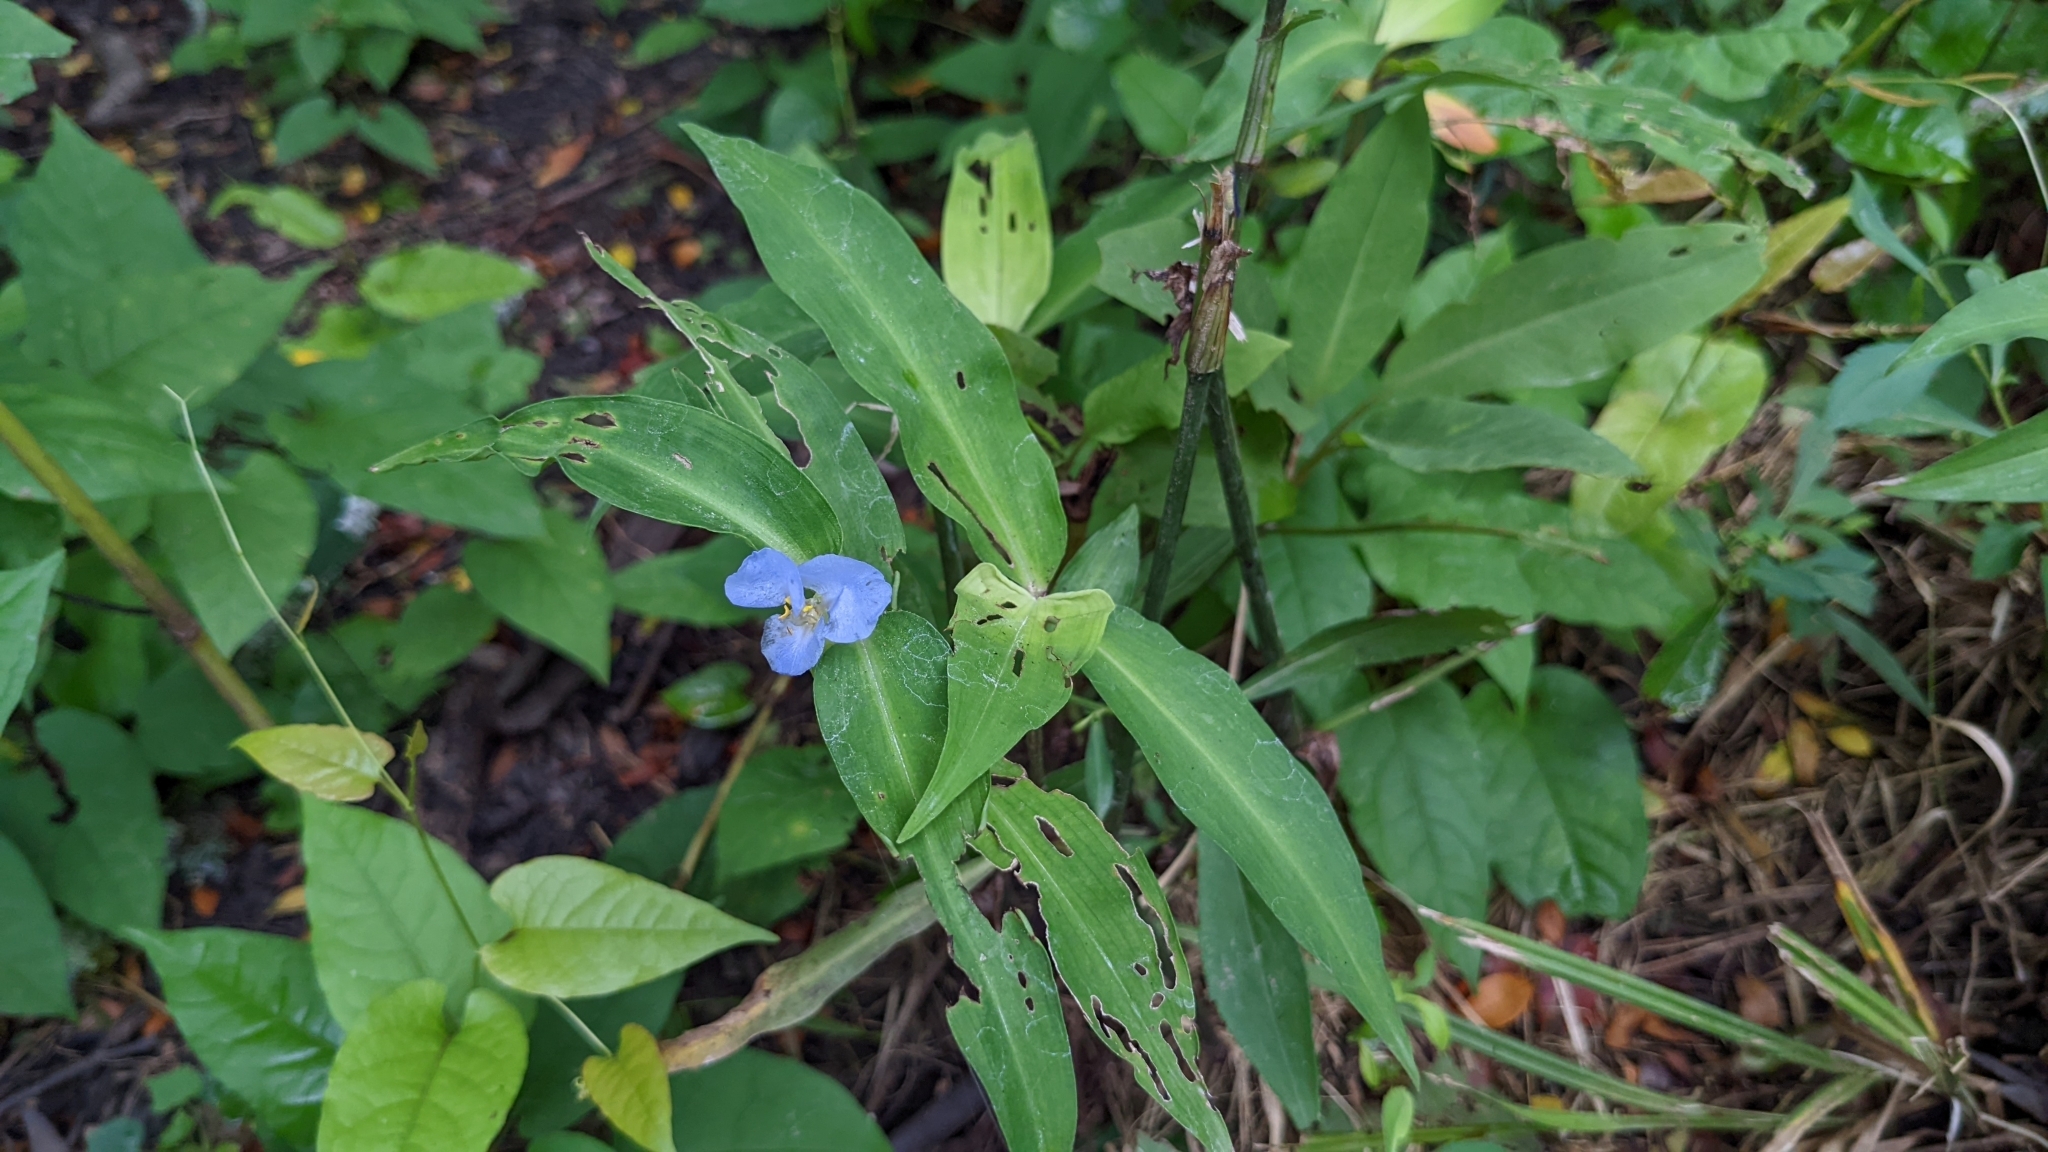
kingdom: Plantae
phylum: Tracheophyta
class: Liliopsida
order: Commelinales
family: Commelinaceae
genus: Commelina
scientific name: Commelina virginica
